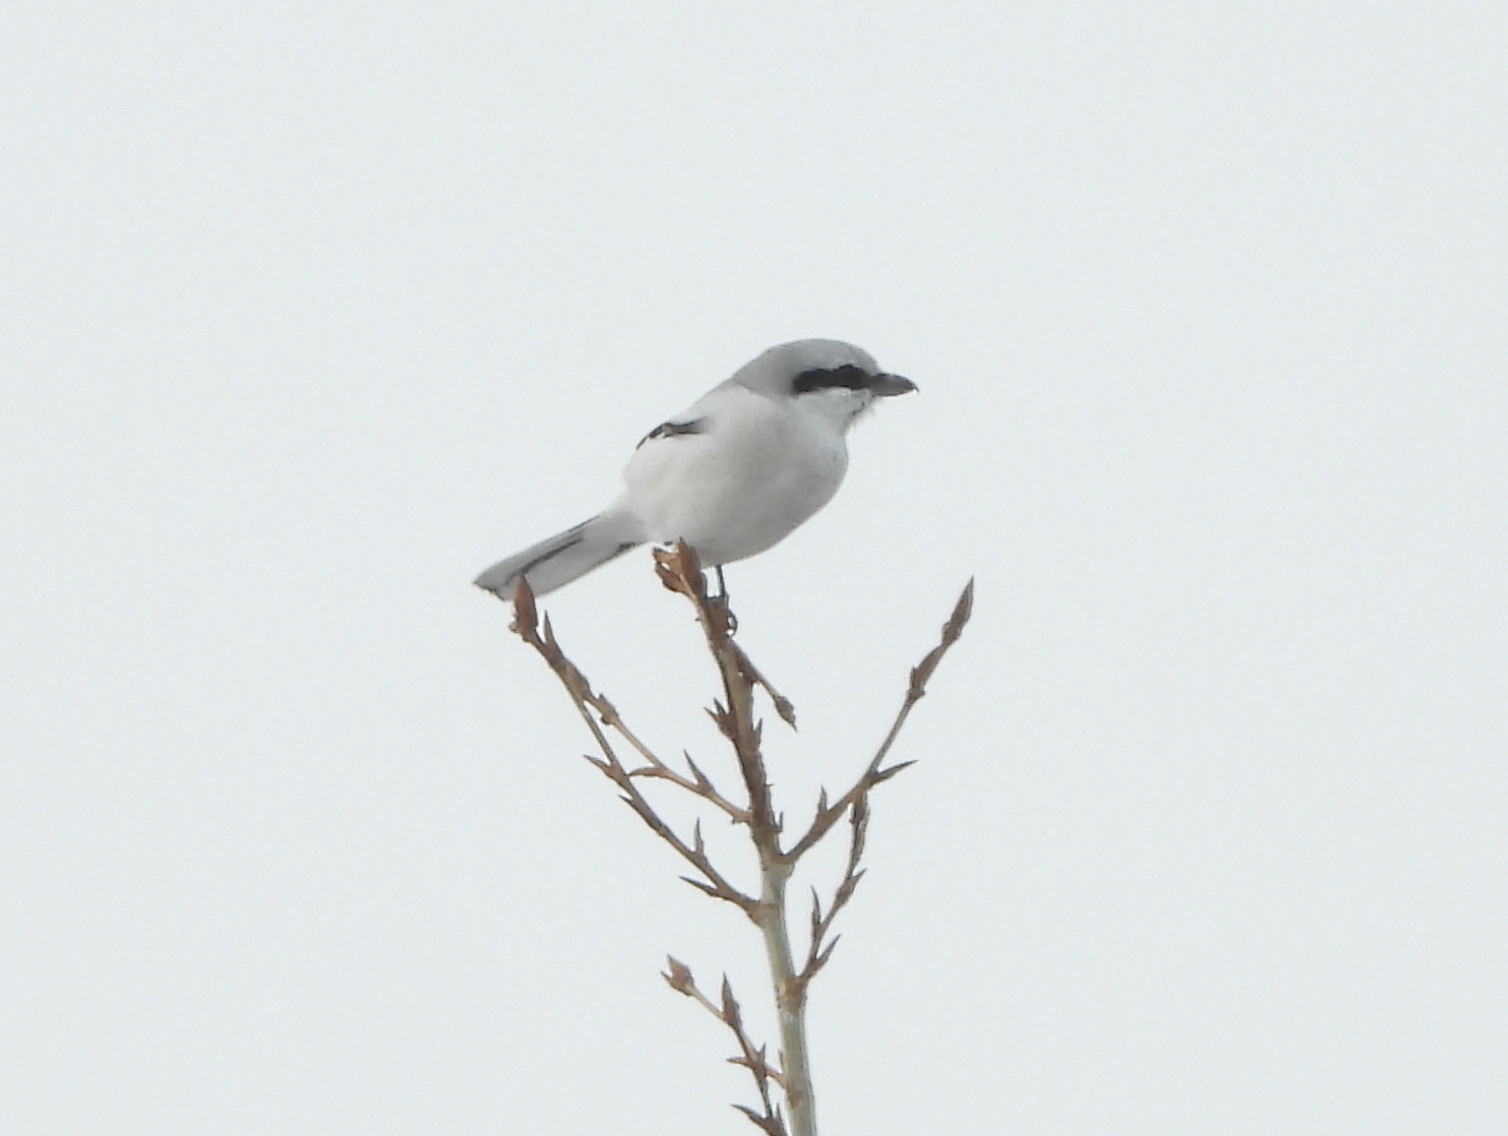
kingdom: Animalia
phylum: Chordata
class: Aves
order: Passeriformes
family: Laniidae
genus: Lanius
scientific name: Lanius excubitor
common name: Great grey shrike
